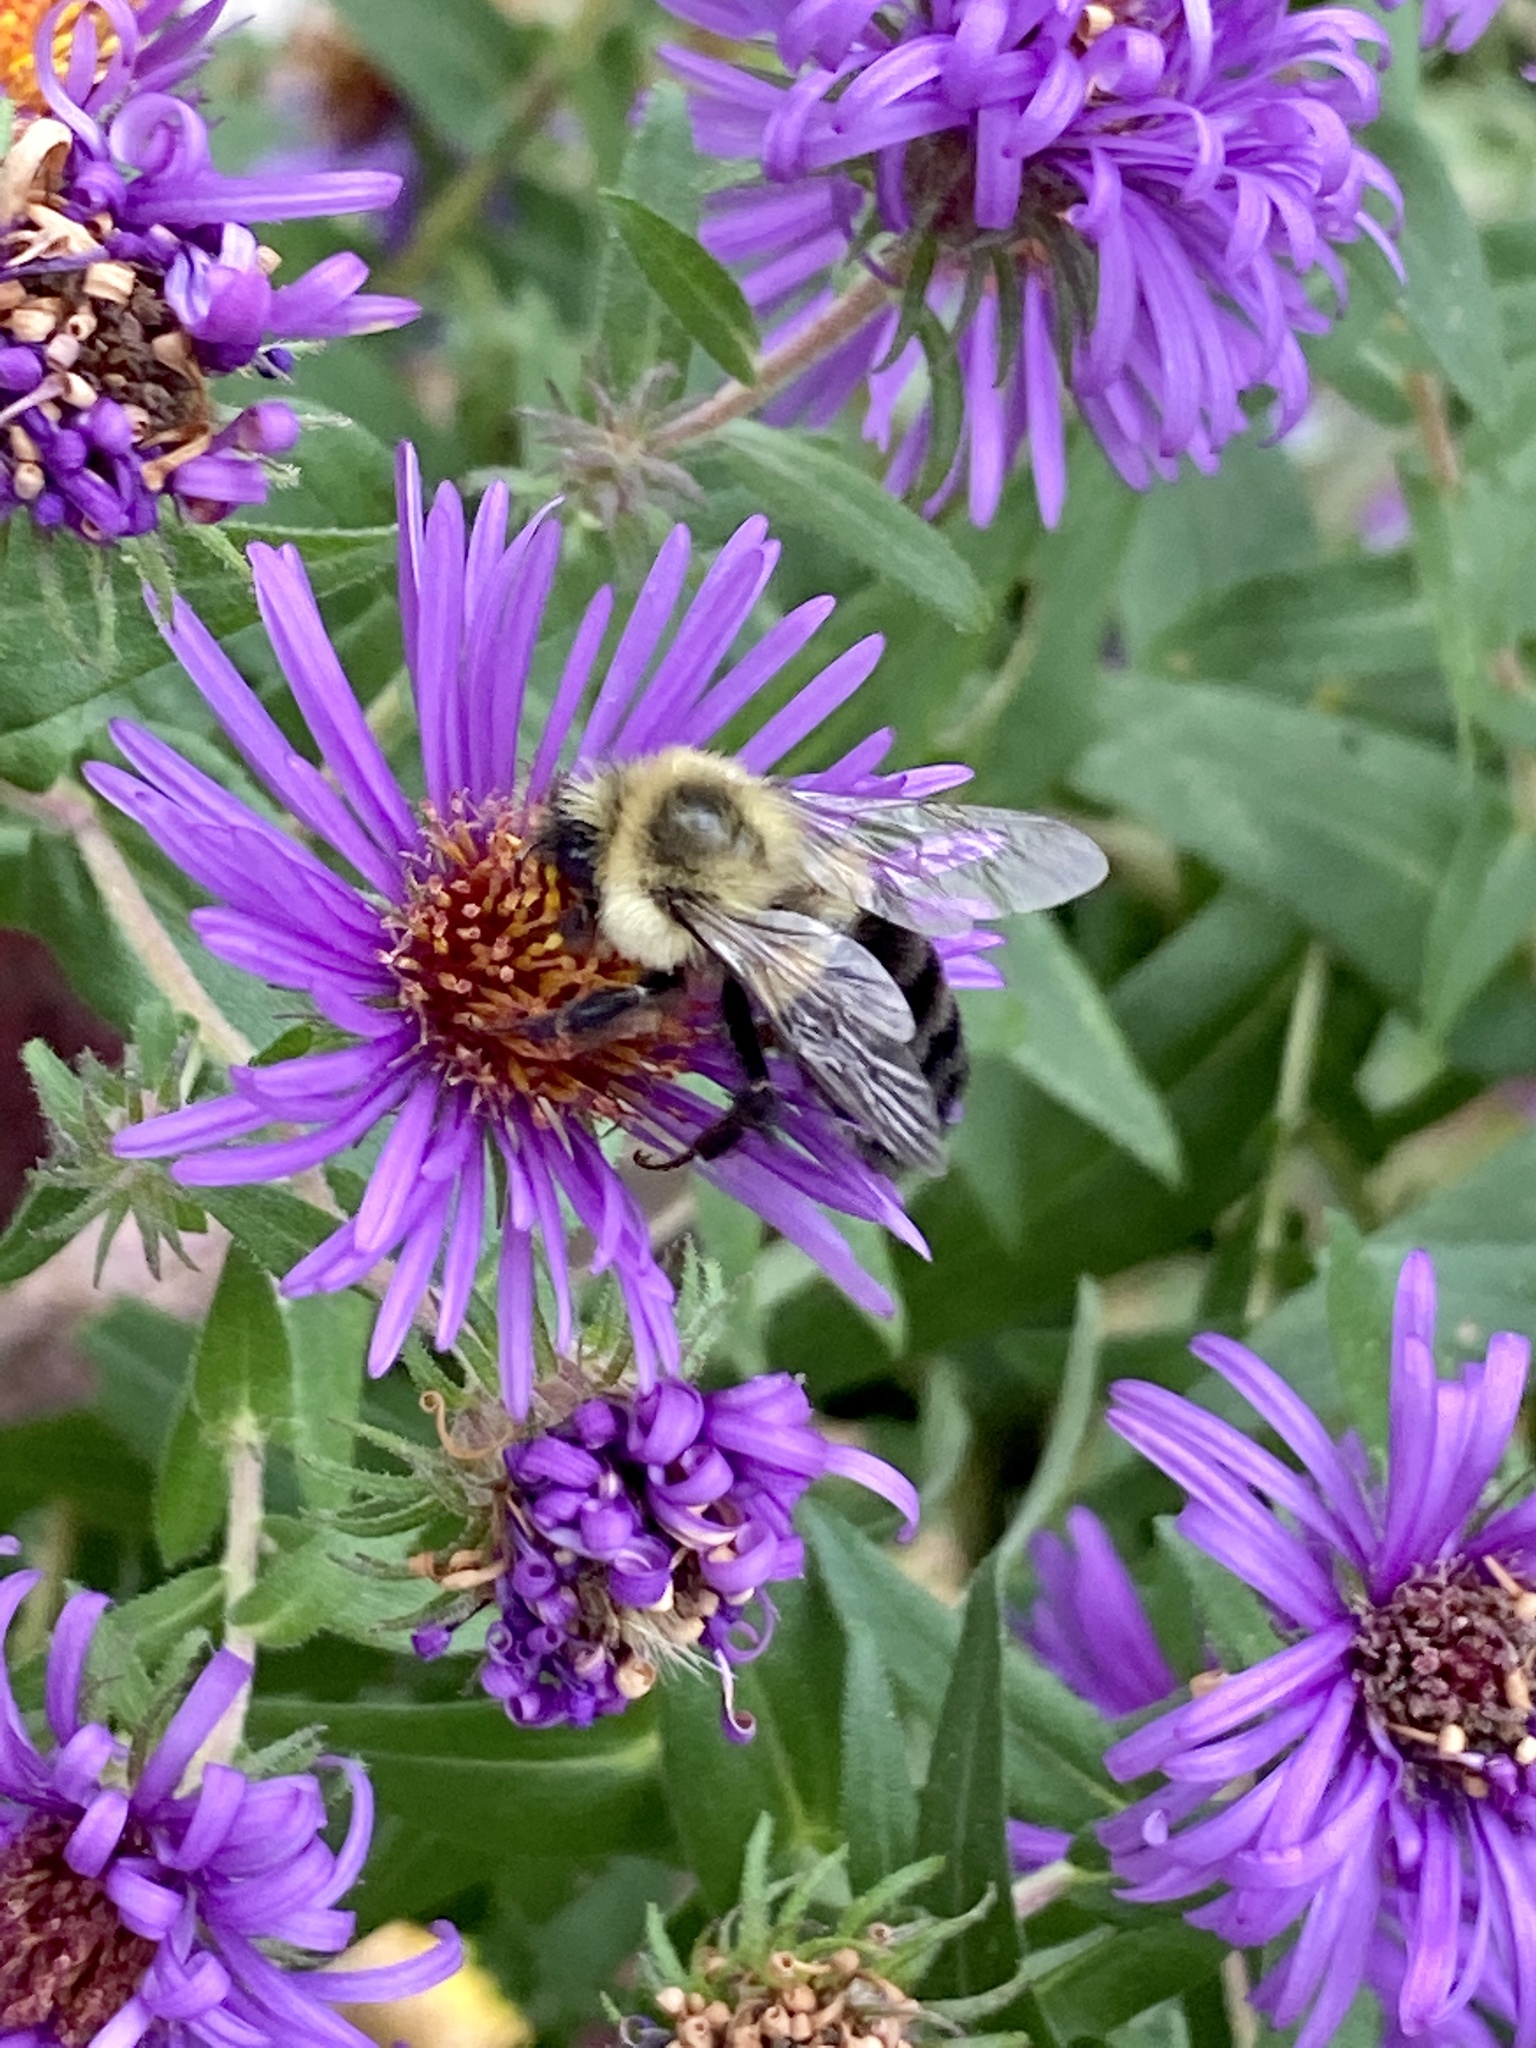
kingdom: Animalia
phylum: Arthropoda
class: Insecta
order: Hymenoptera
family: Apidae
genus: Bombus
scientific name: Bombus impatiens
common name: Common eastern bumble bee
